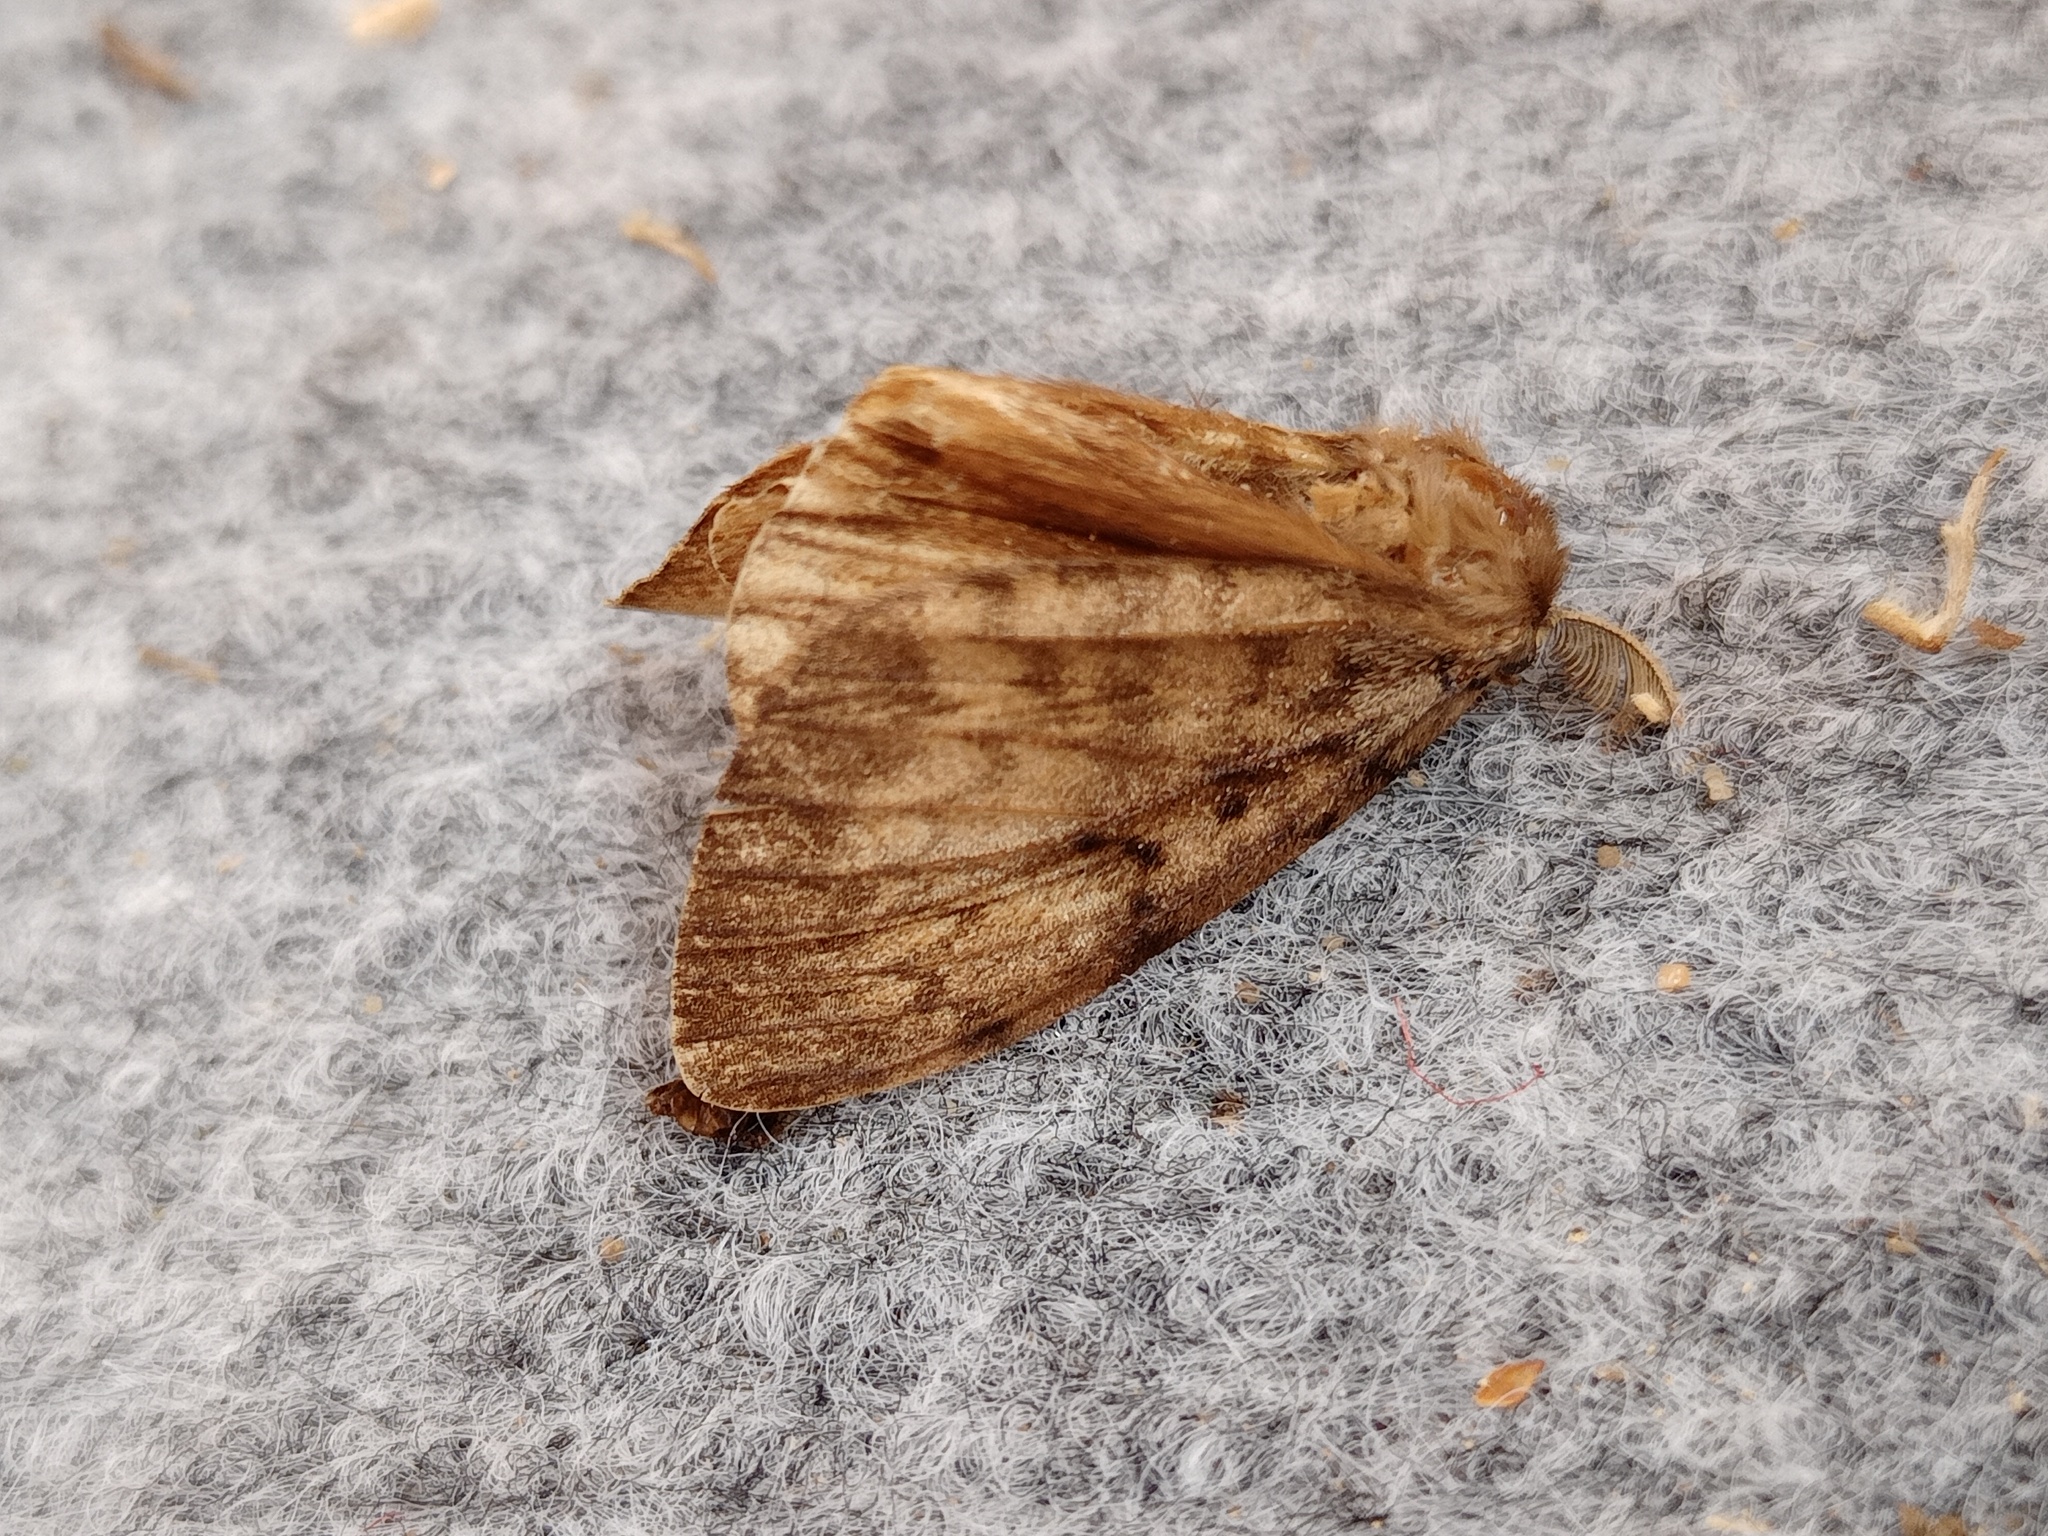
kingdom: Animalia
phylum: Arthropoda
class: Insecta
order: Lepidoptera
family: Erebidae
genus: Lymantria
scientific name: Lymantria dispar
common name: Gypsy moth
